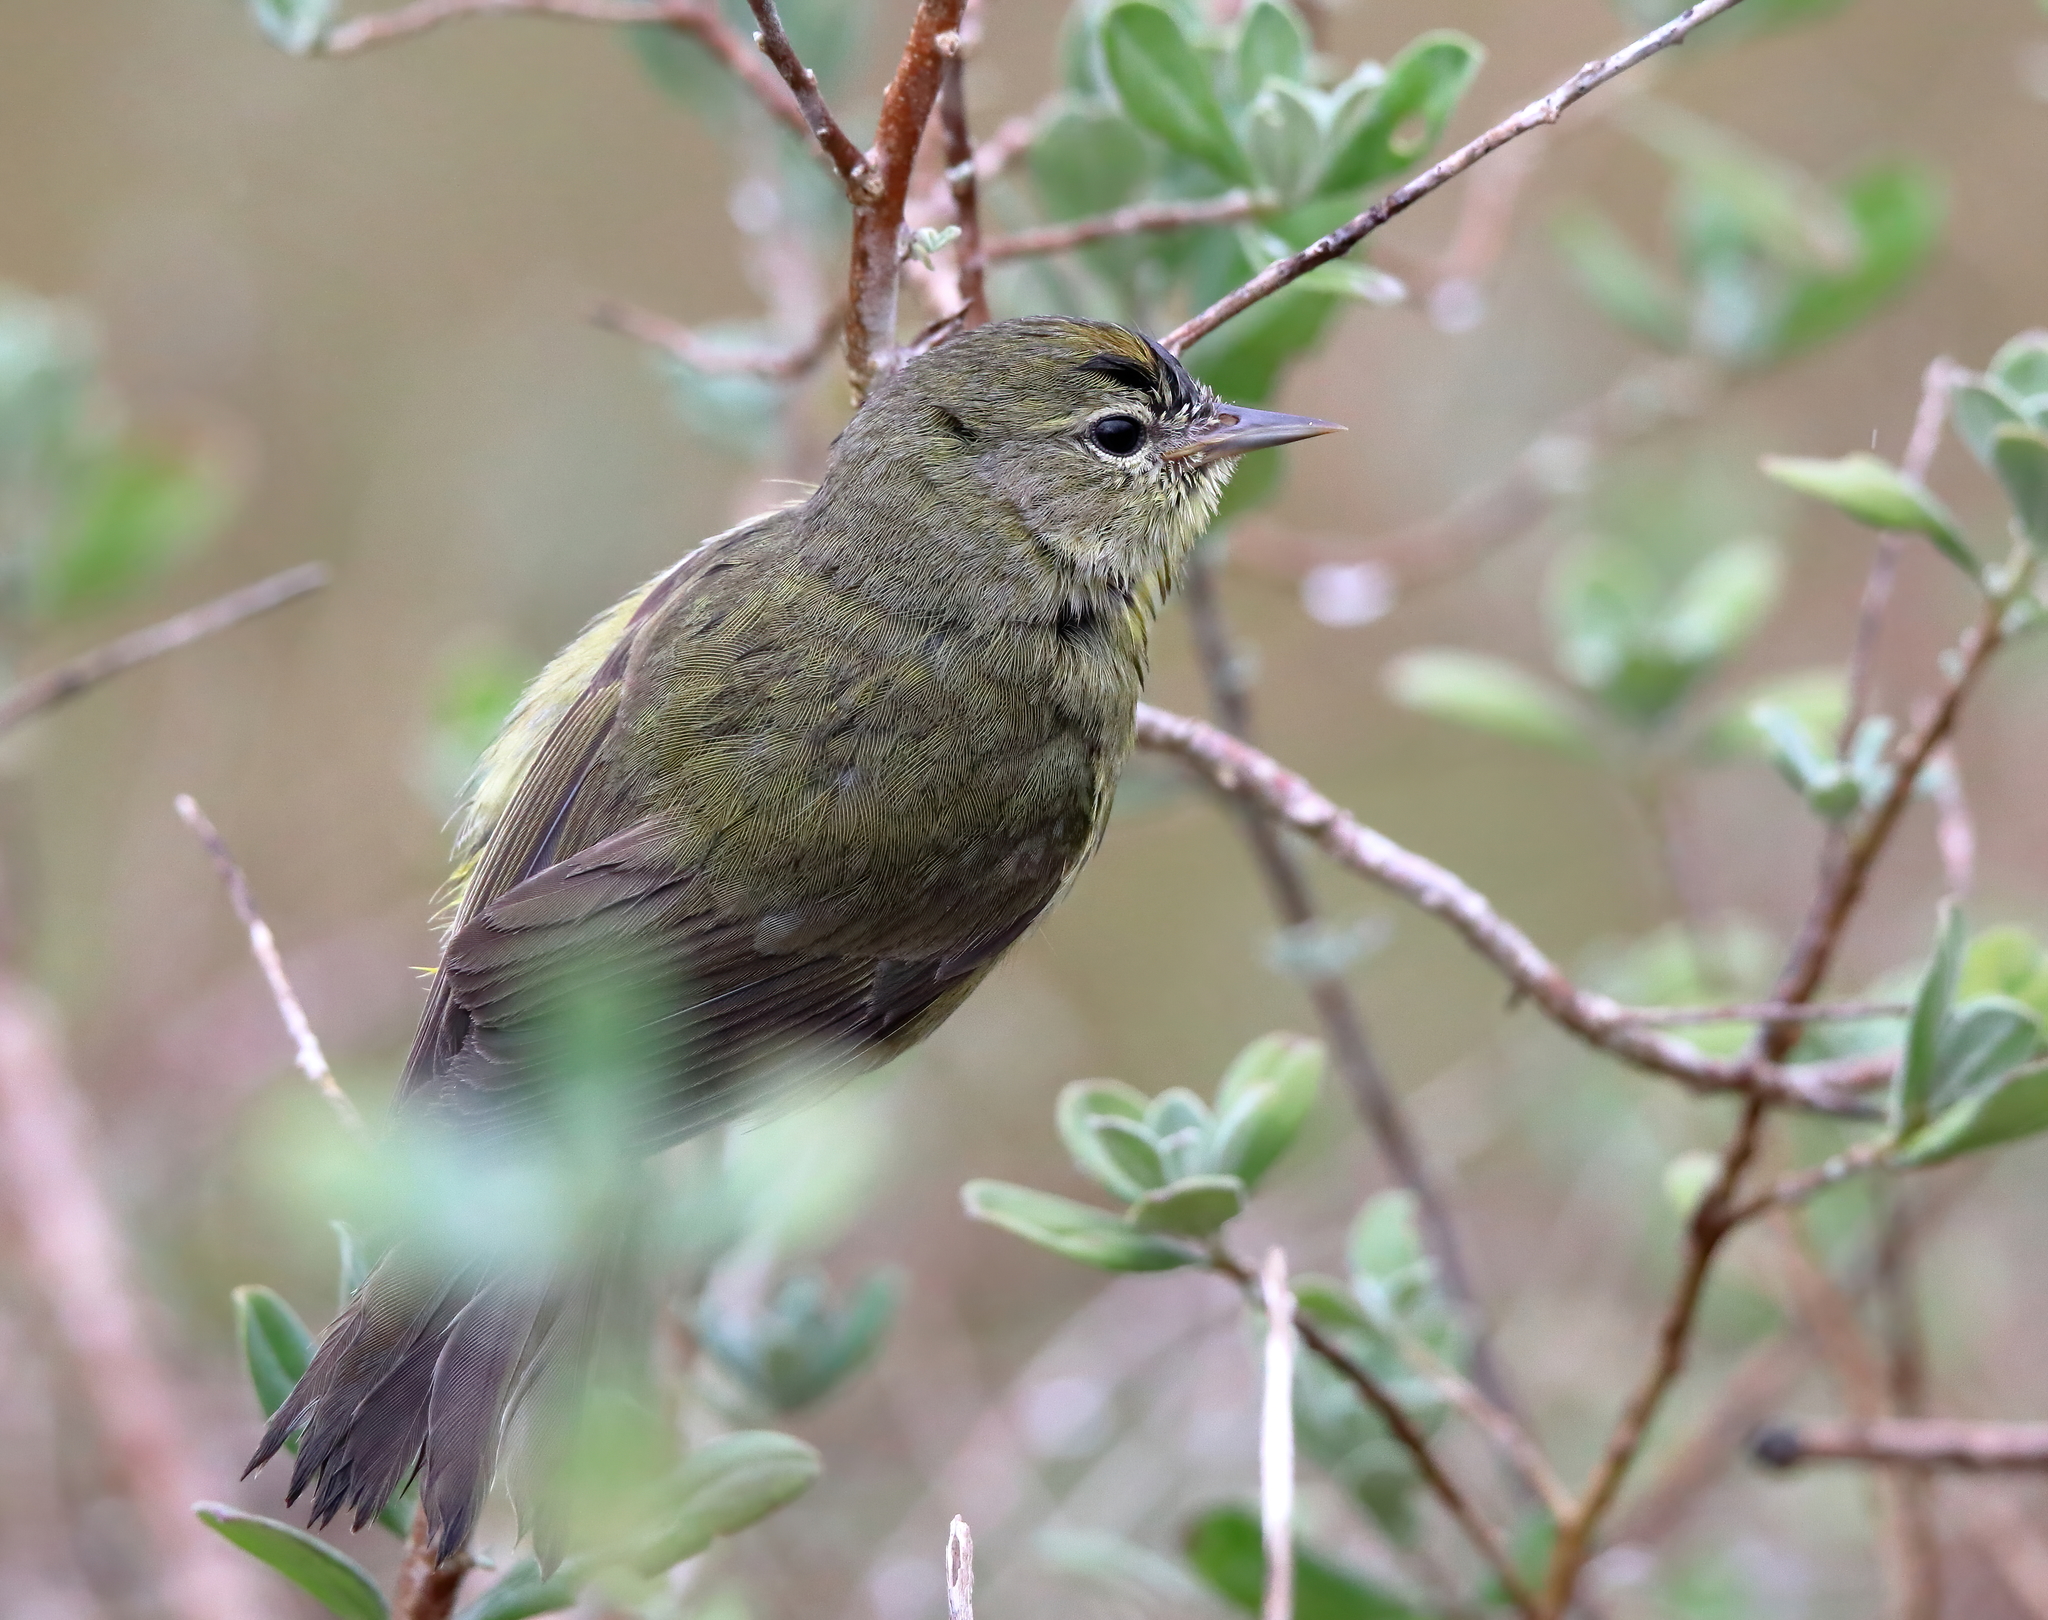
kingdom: Animalia
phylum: Chordata
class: Aves
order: Passeriformes
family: Parulidae
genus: Leiothlypis
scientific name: Leiothlypis celata
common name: Orange-crowned warbler
